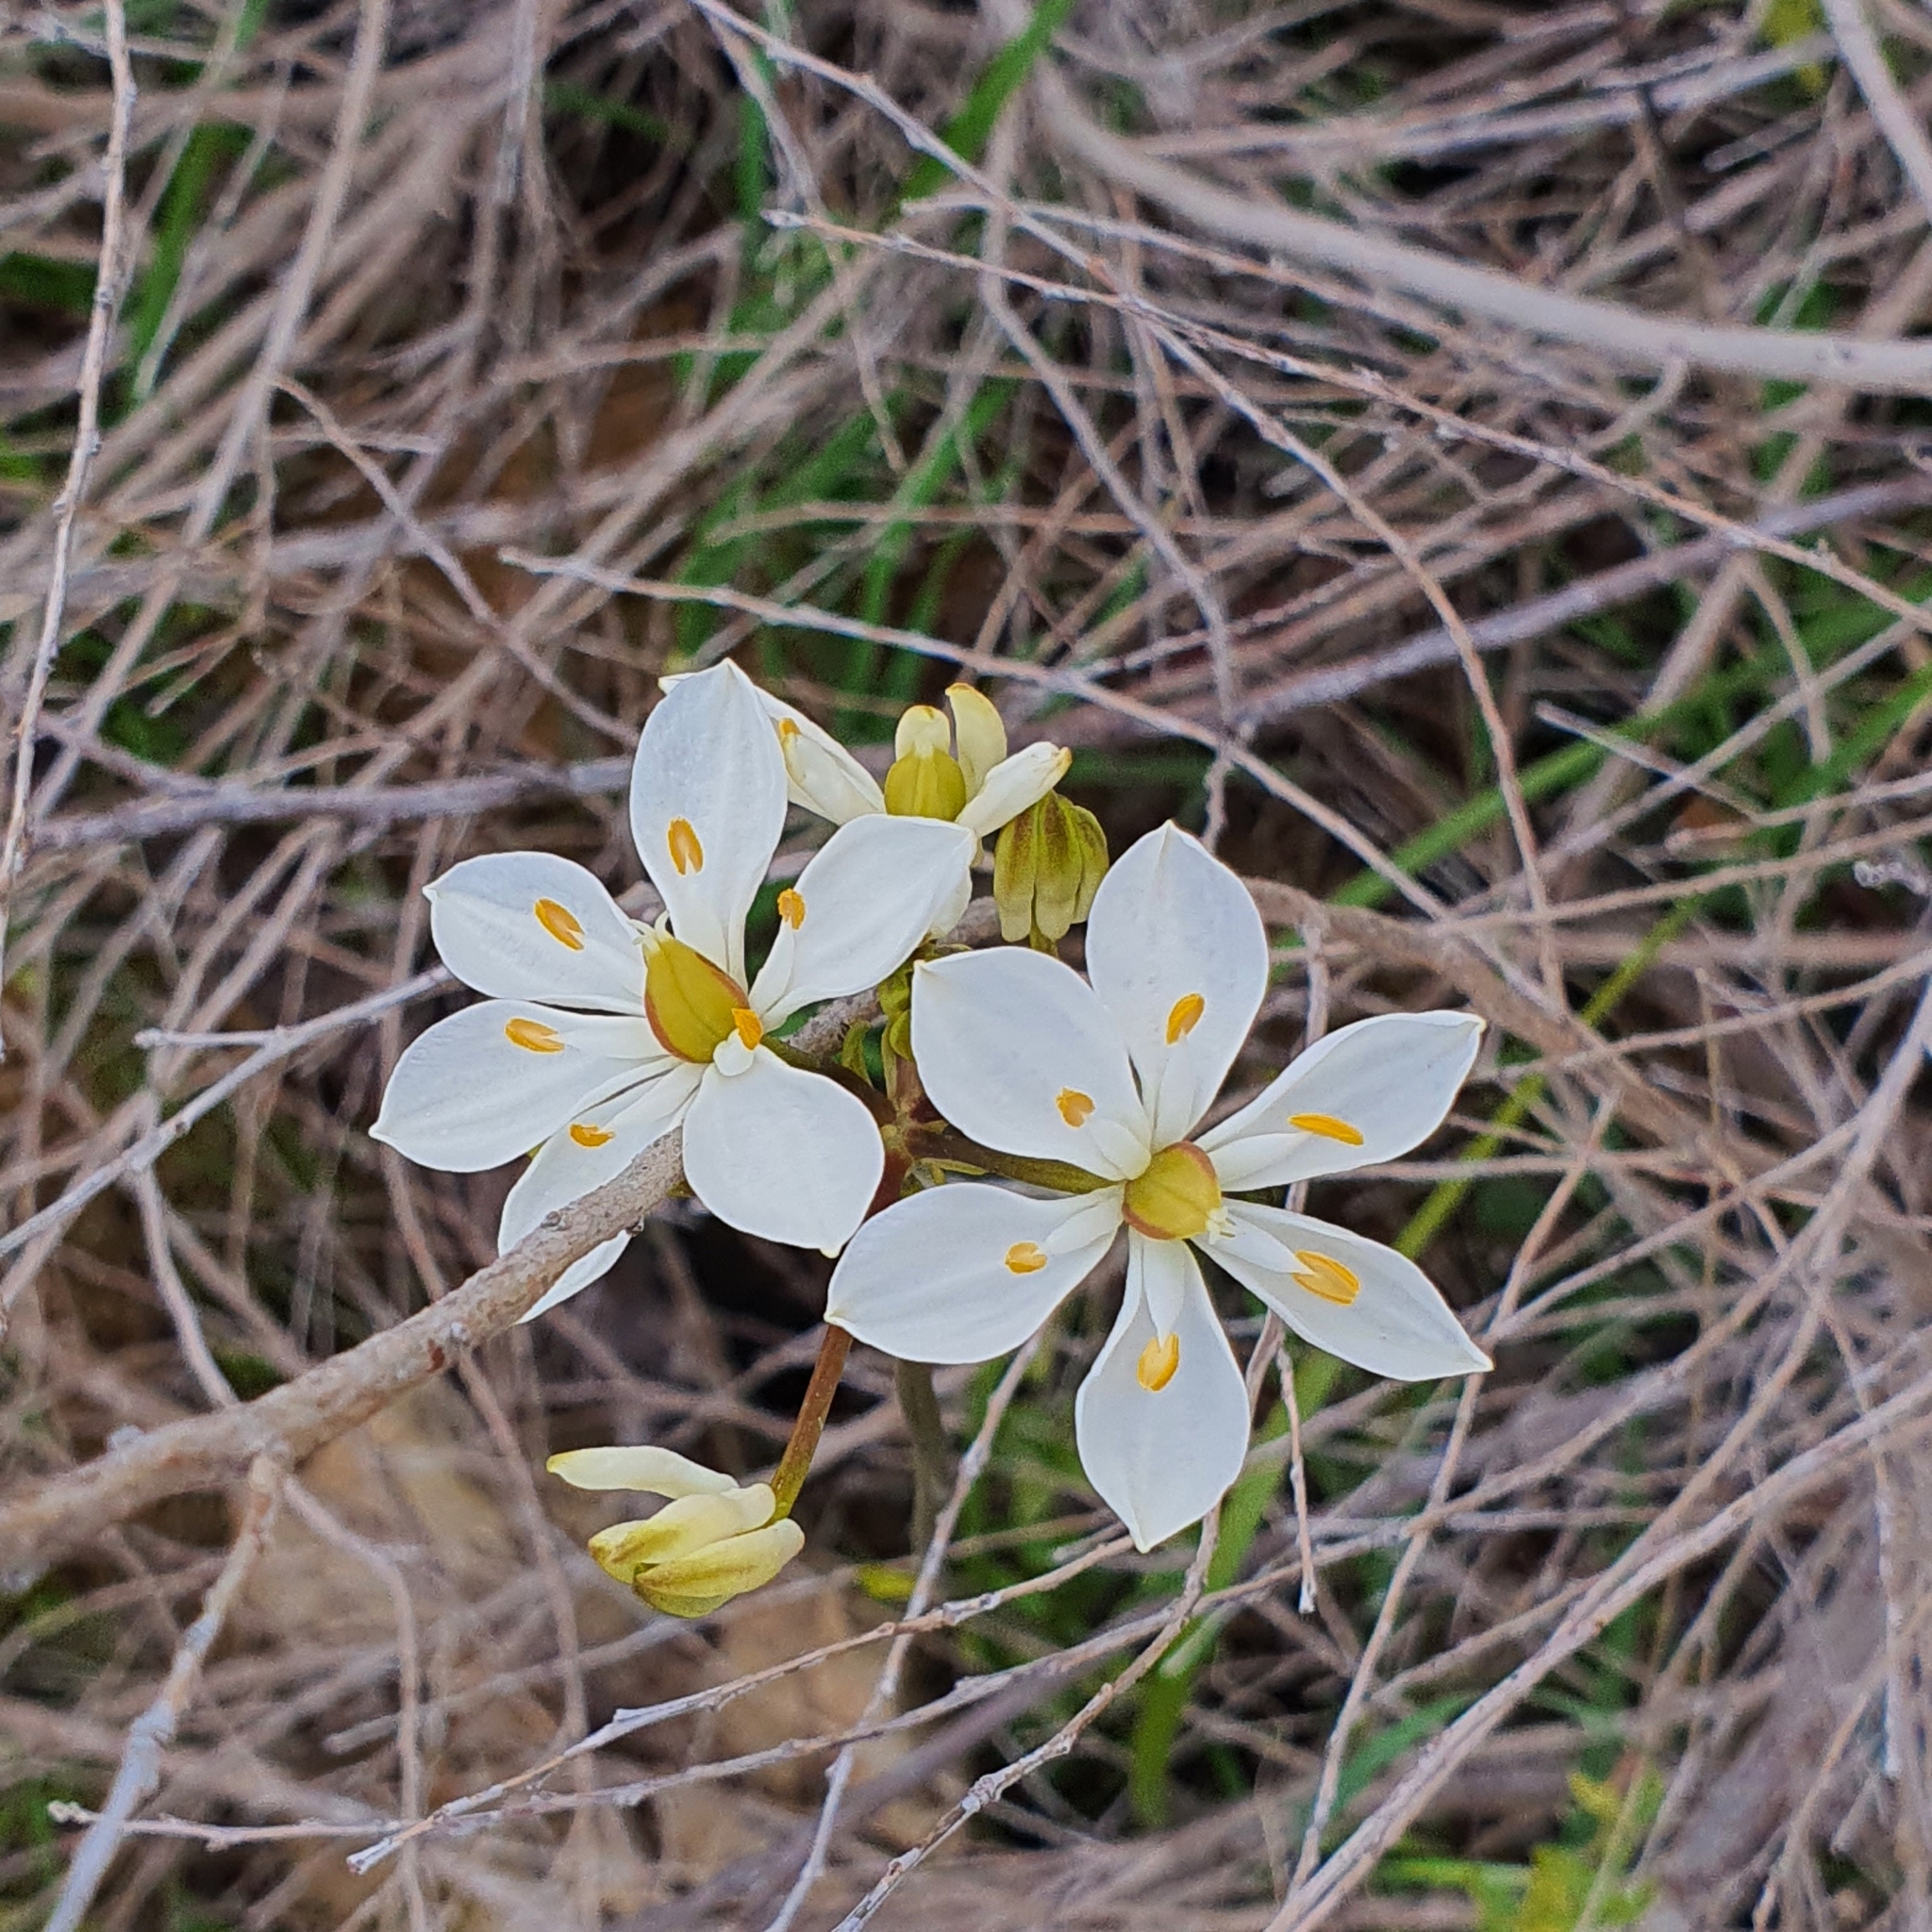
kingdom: Plantae
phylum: Tracheophyta
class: Liliopsida
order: Liliales
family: Colchicaceae
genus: Burchardia
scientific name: Burchardia congesta
